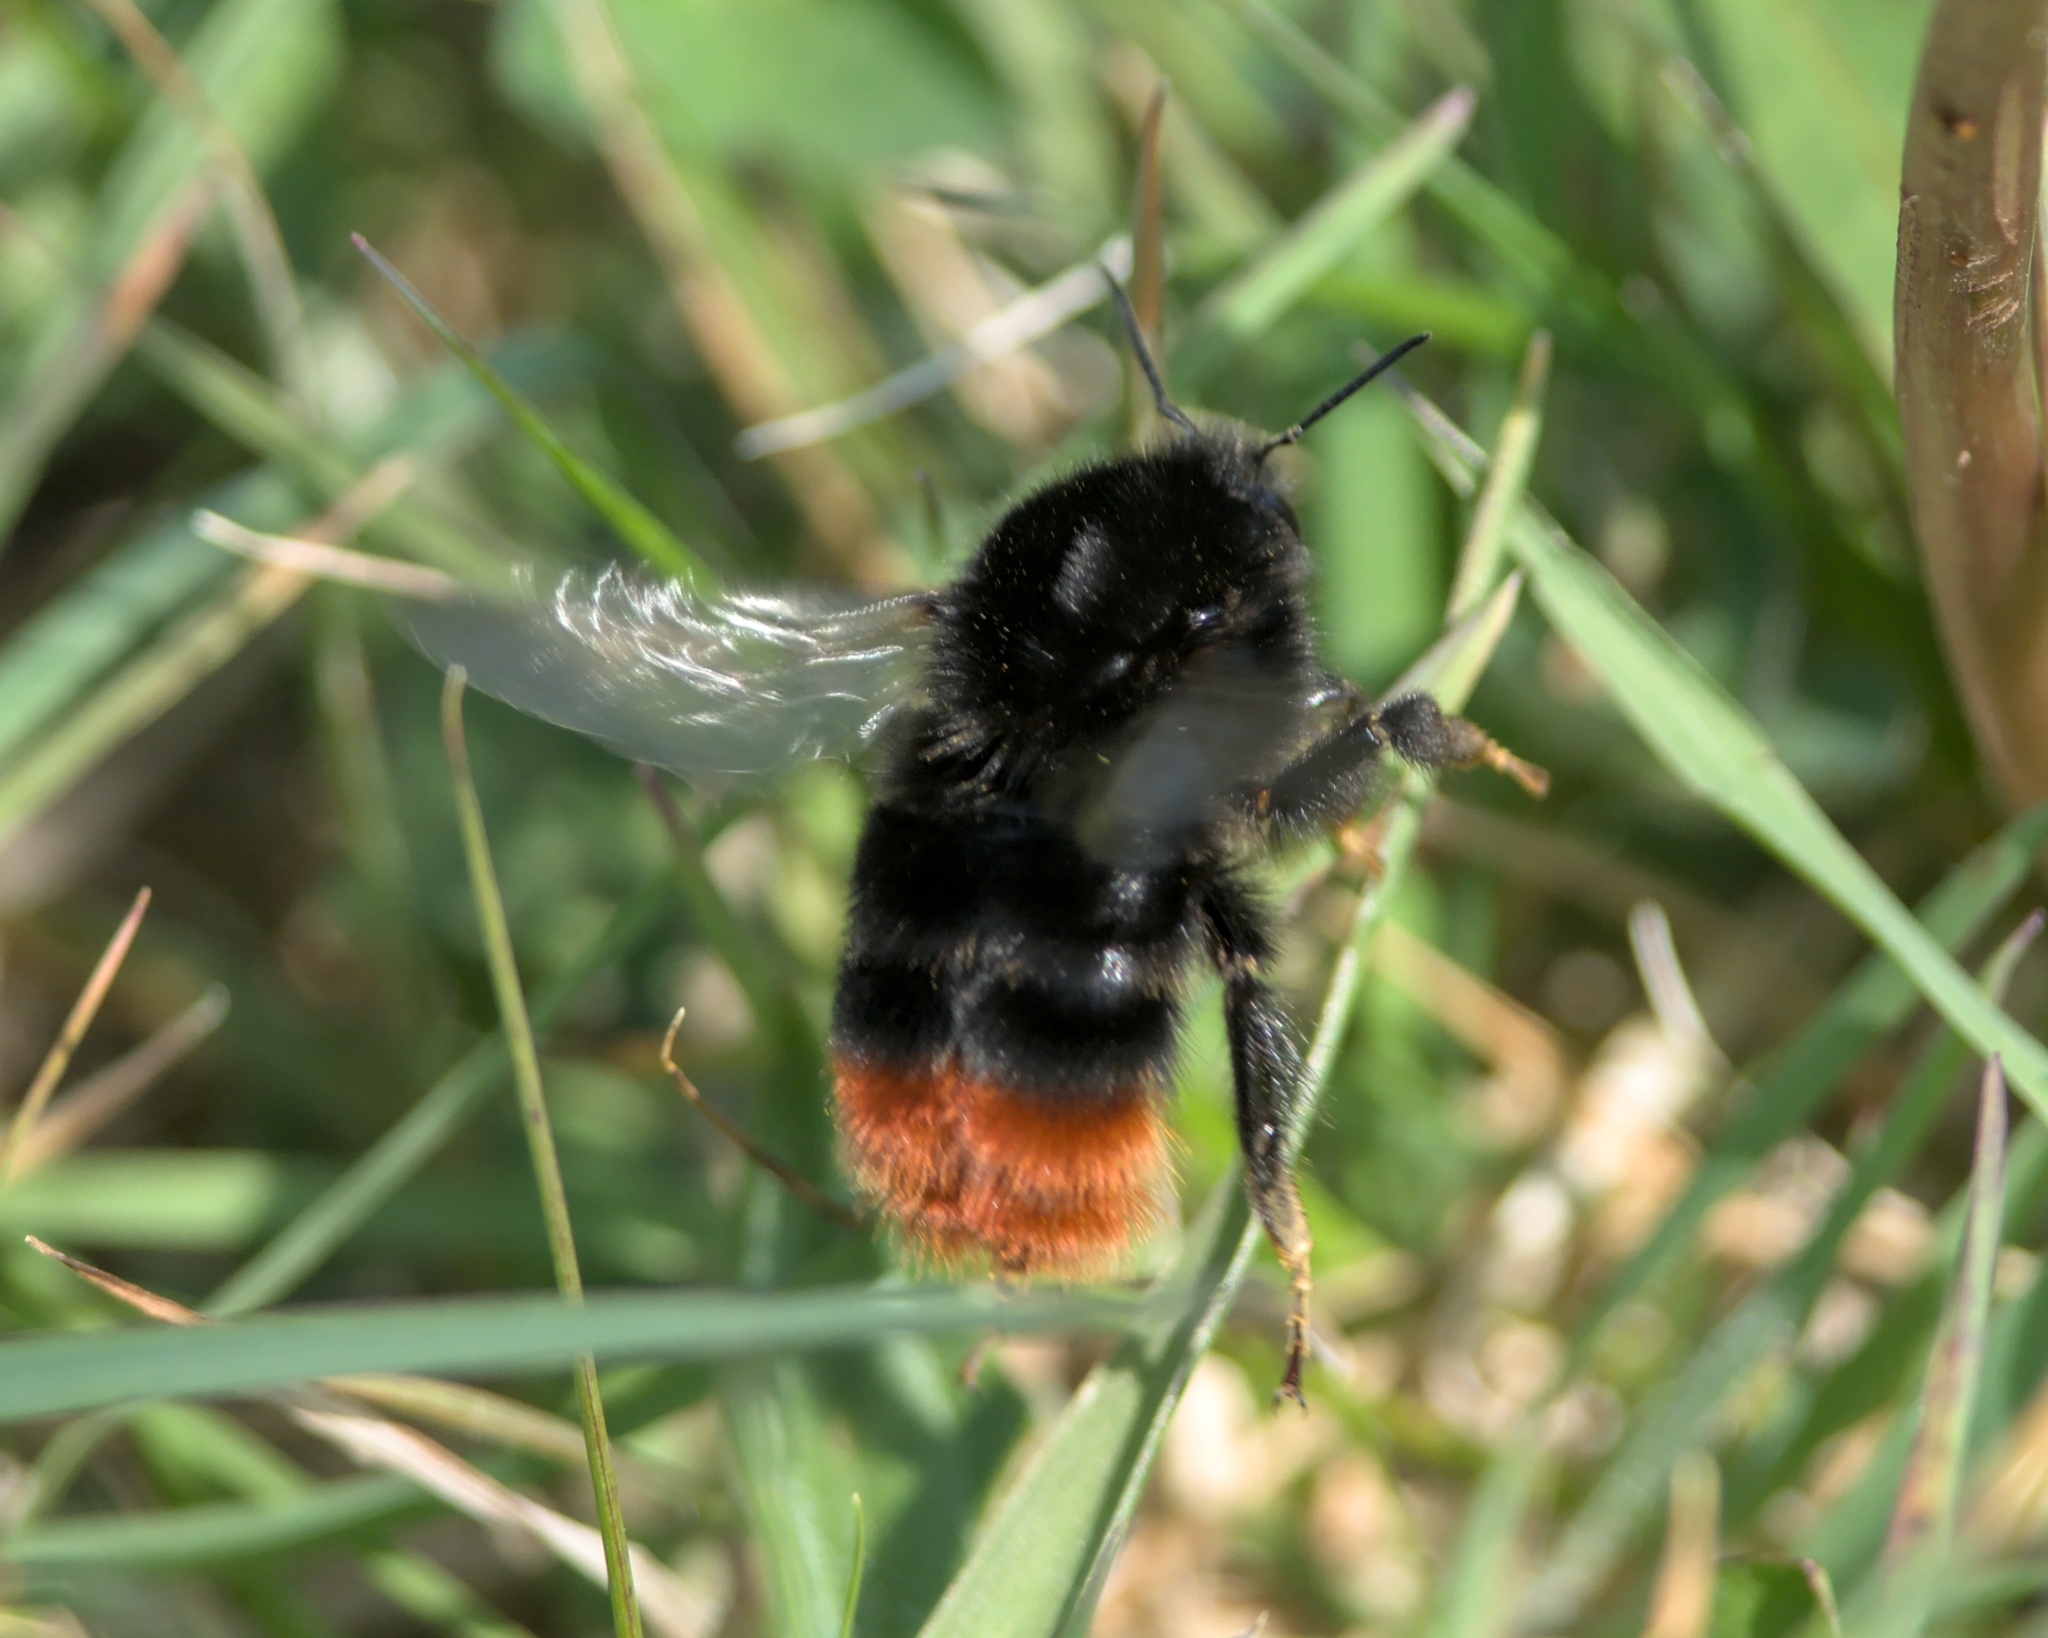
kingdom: Animalia
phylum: Arthropoda
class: Insecta
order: Hymenoptera
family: Apidae
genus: Bombus
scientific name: Bombus lapidarius
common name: Large red-tailed humble-bee
